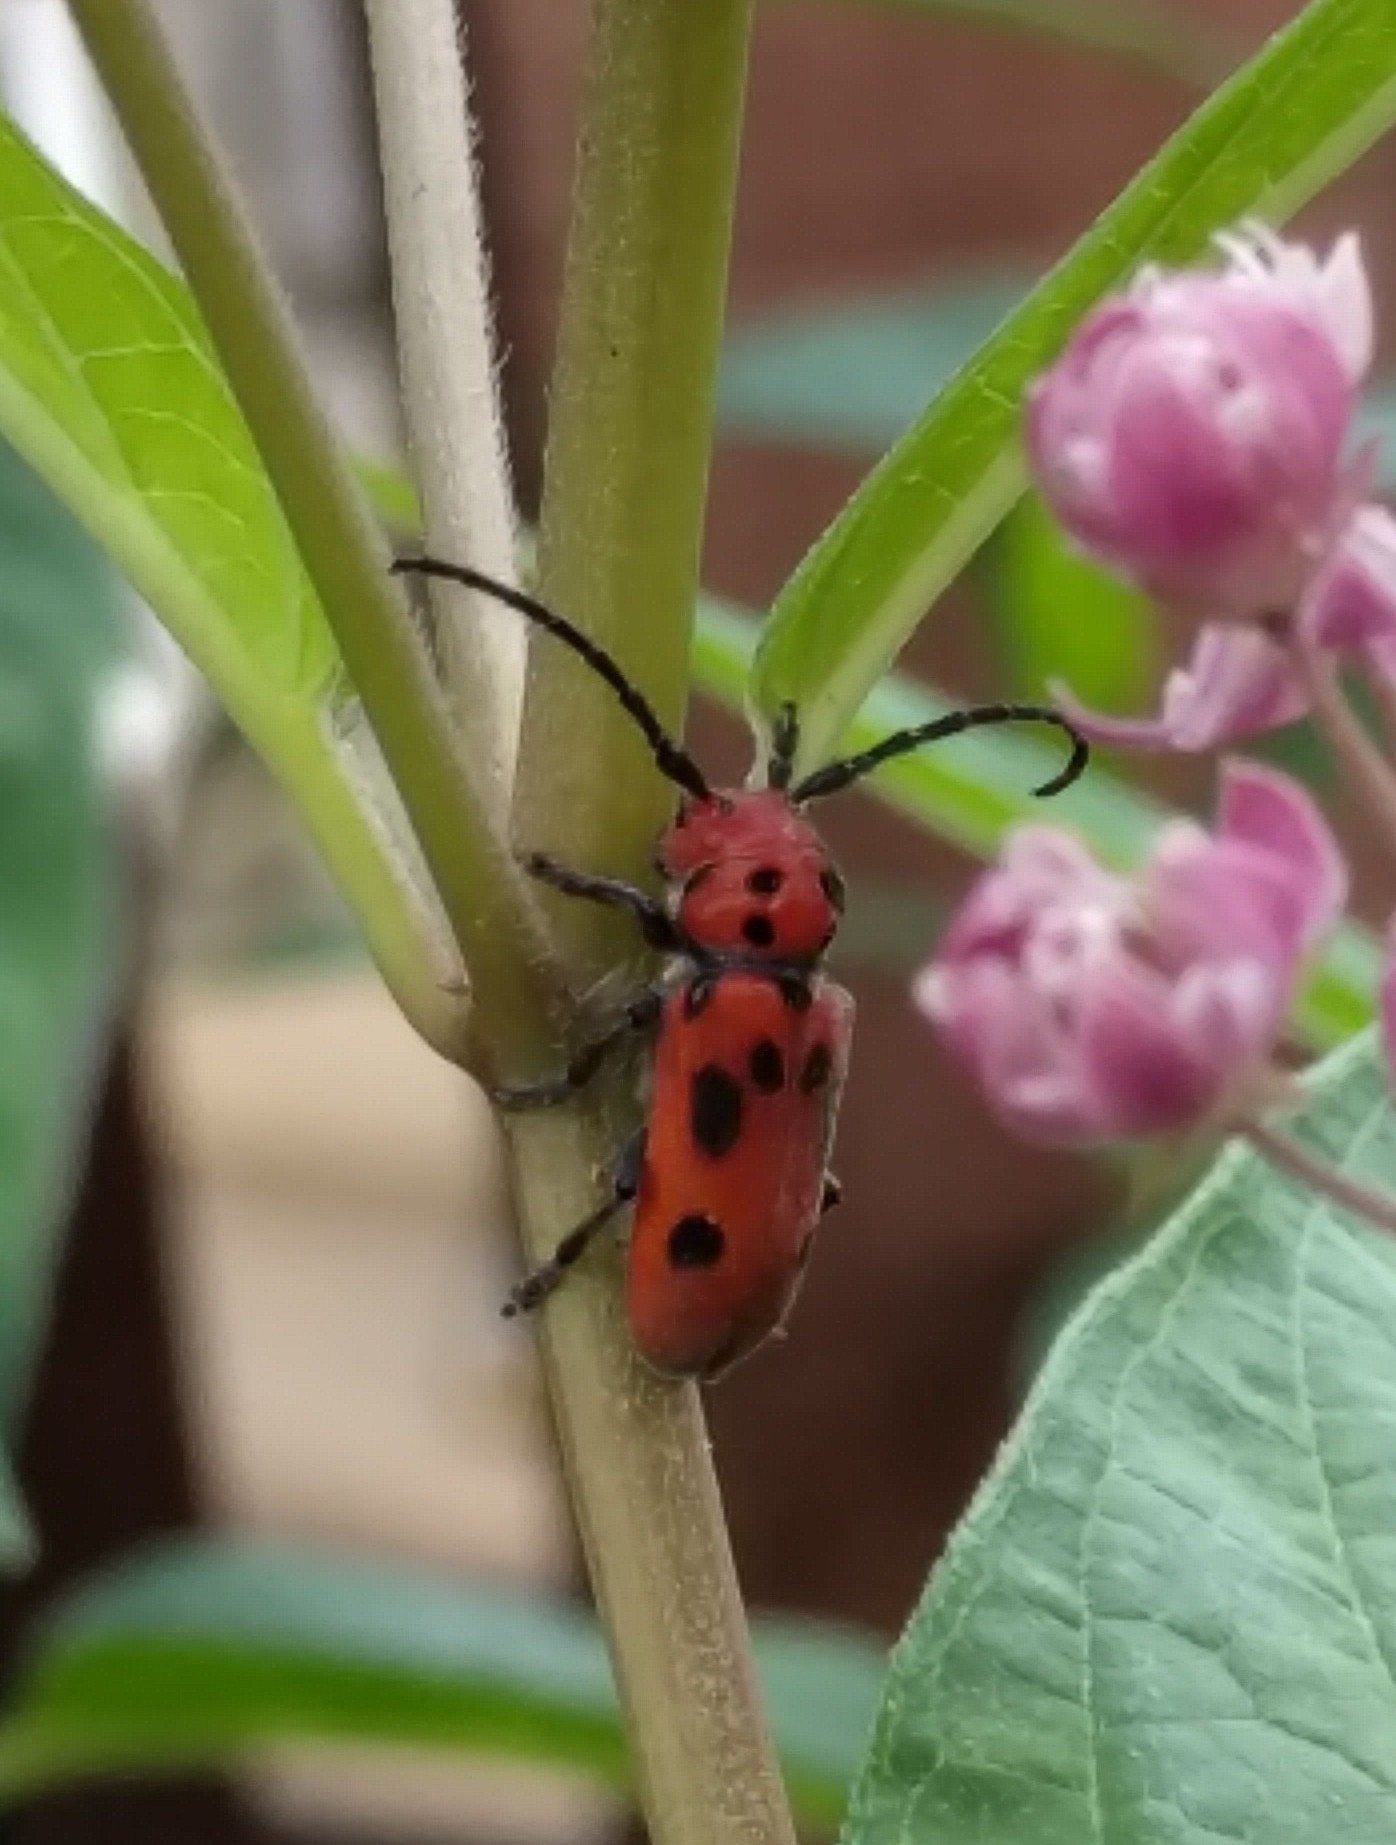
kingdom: Animalia
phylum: Arthropoda
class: Insecta
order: Coleoptera
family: Cerambycidae
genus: Tetraopes
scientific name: Tetraopes tetrophthalmus
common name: Red milkweed beetle
